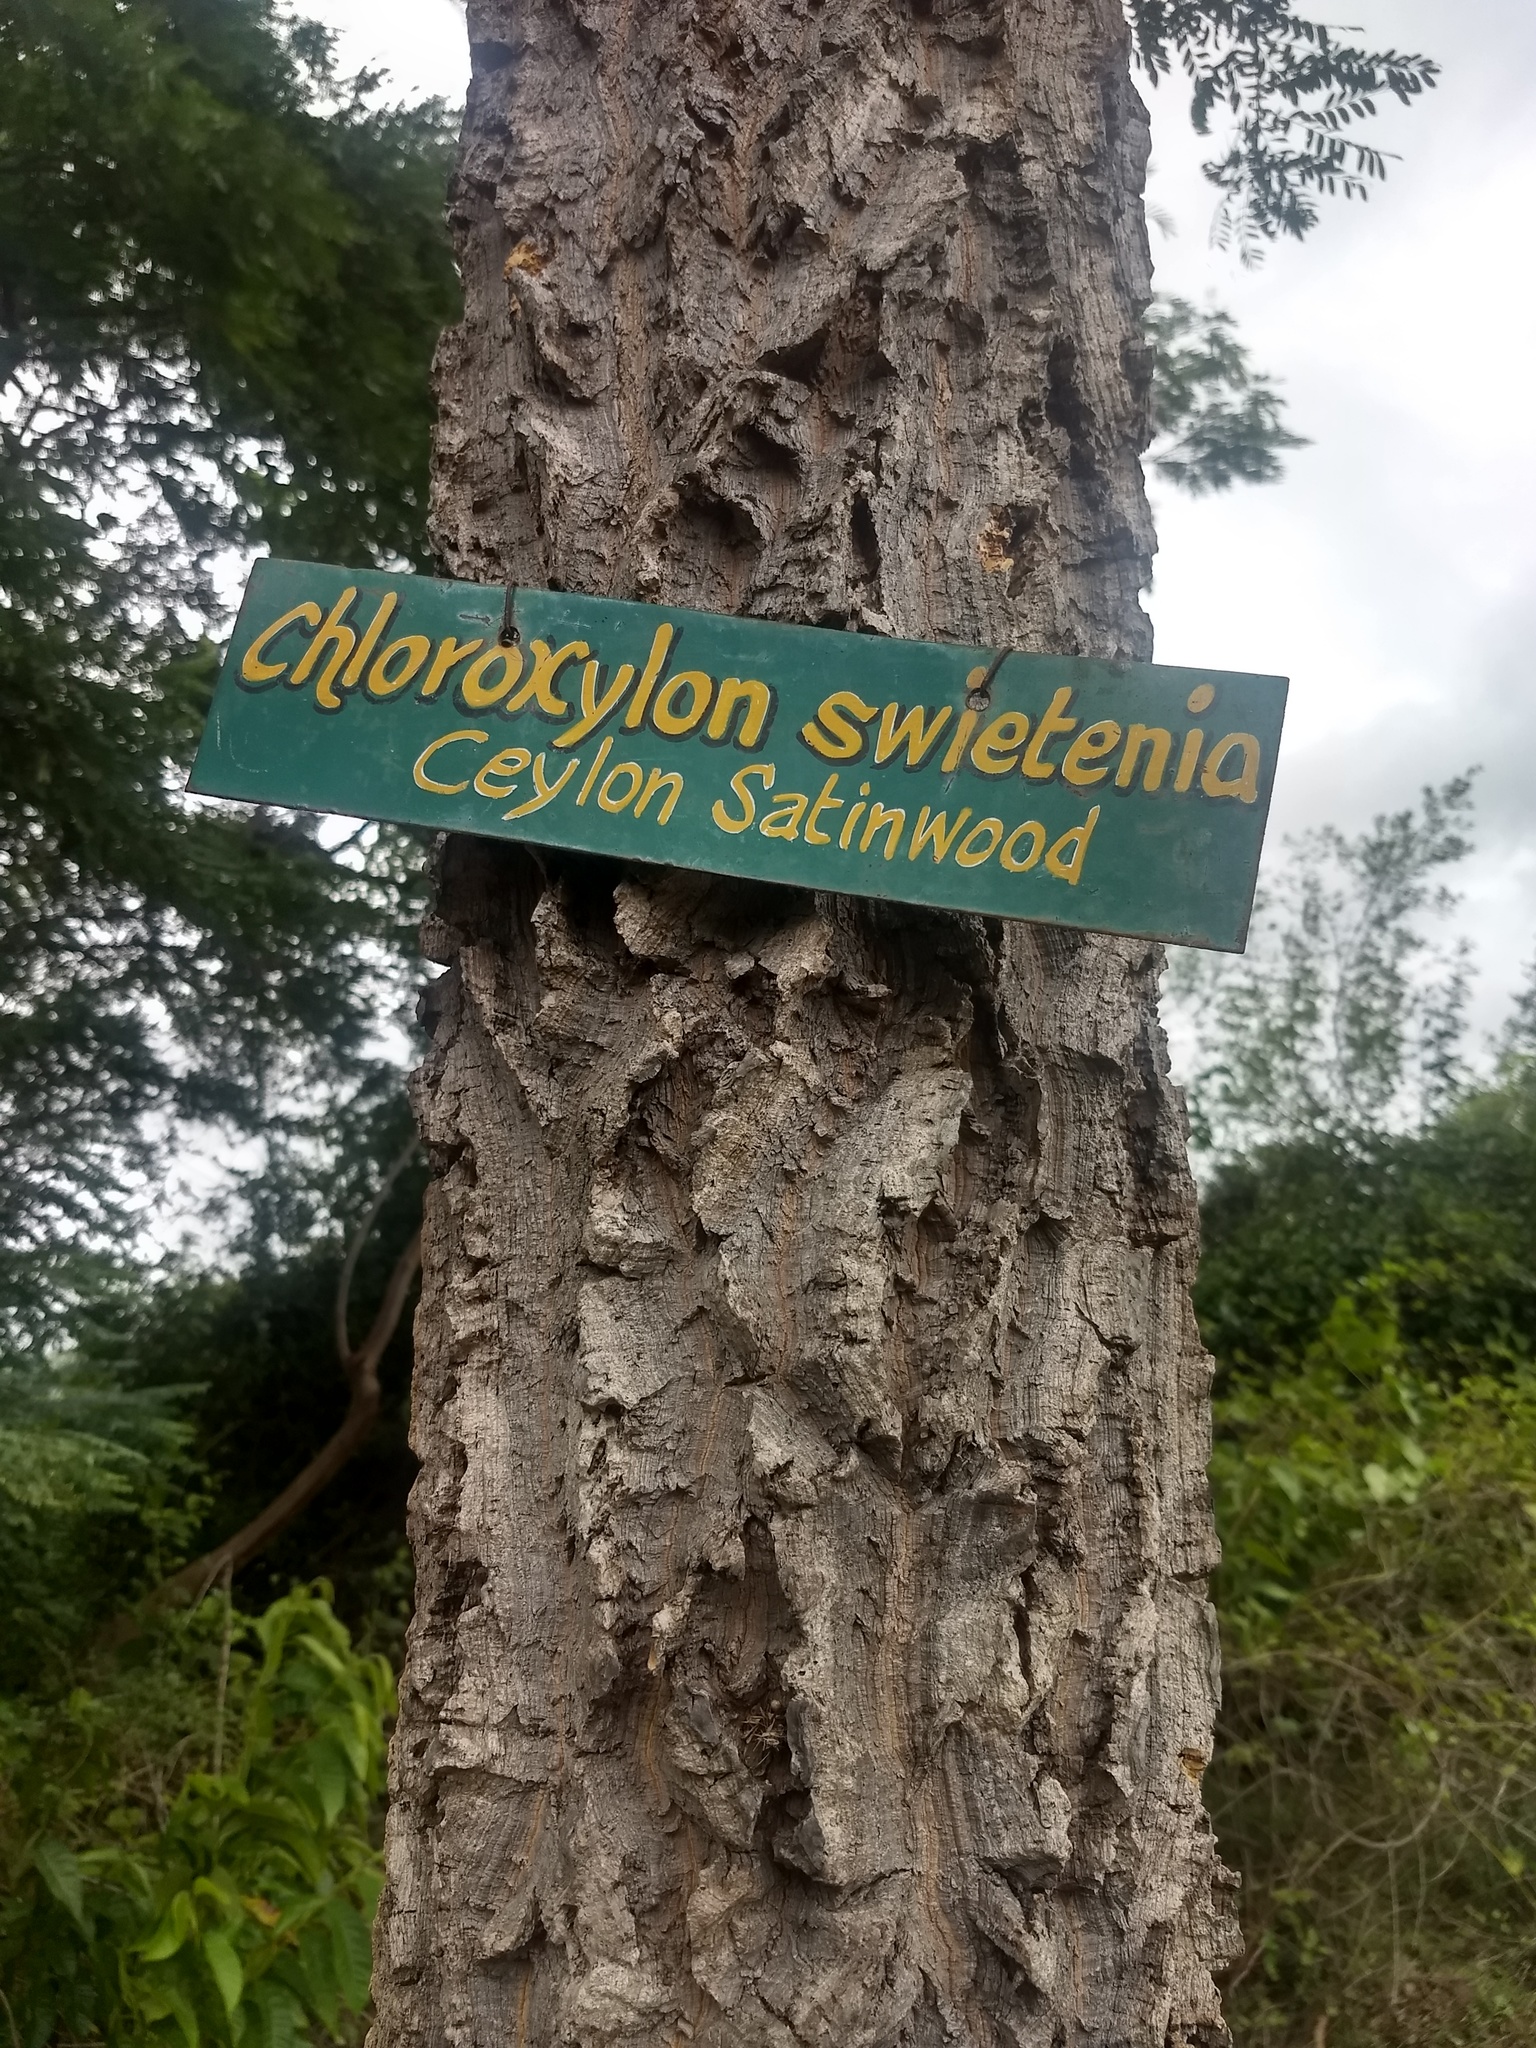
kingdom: Plantae
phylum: Tracheophyta
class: Magnoliopsida
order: Sapindales
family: Rutaceae
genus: Chloroxylon
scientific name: Chloroxylon swietenia
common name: East indian satinwood
